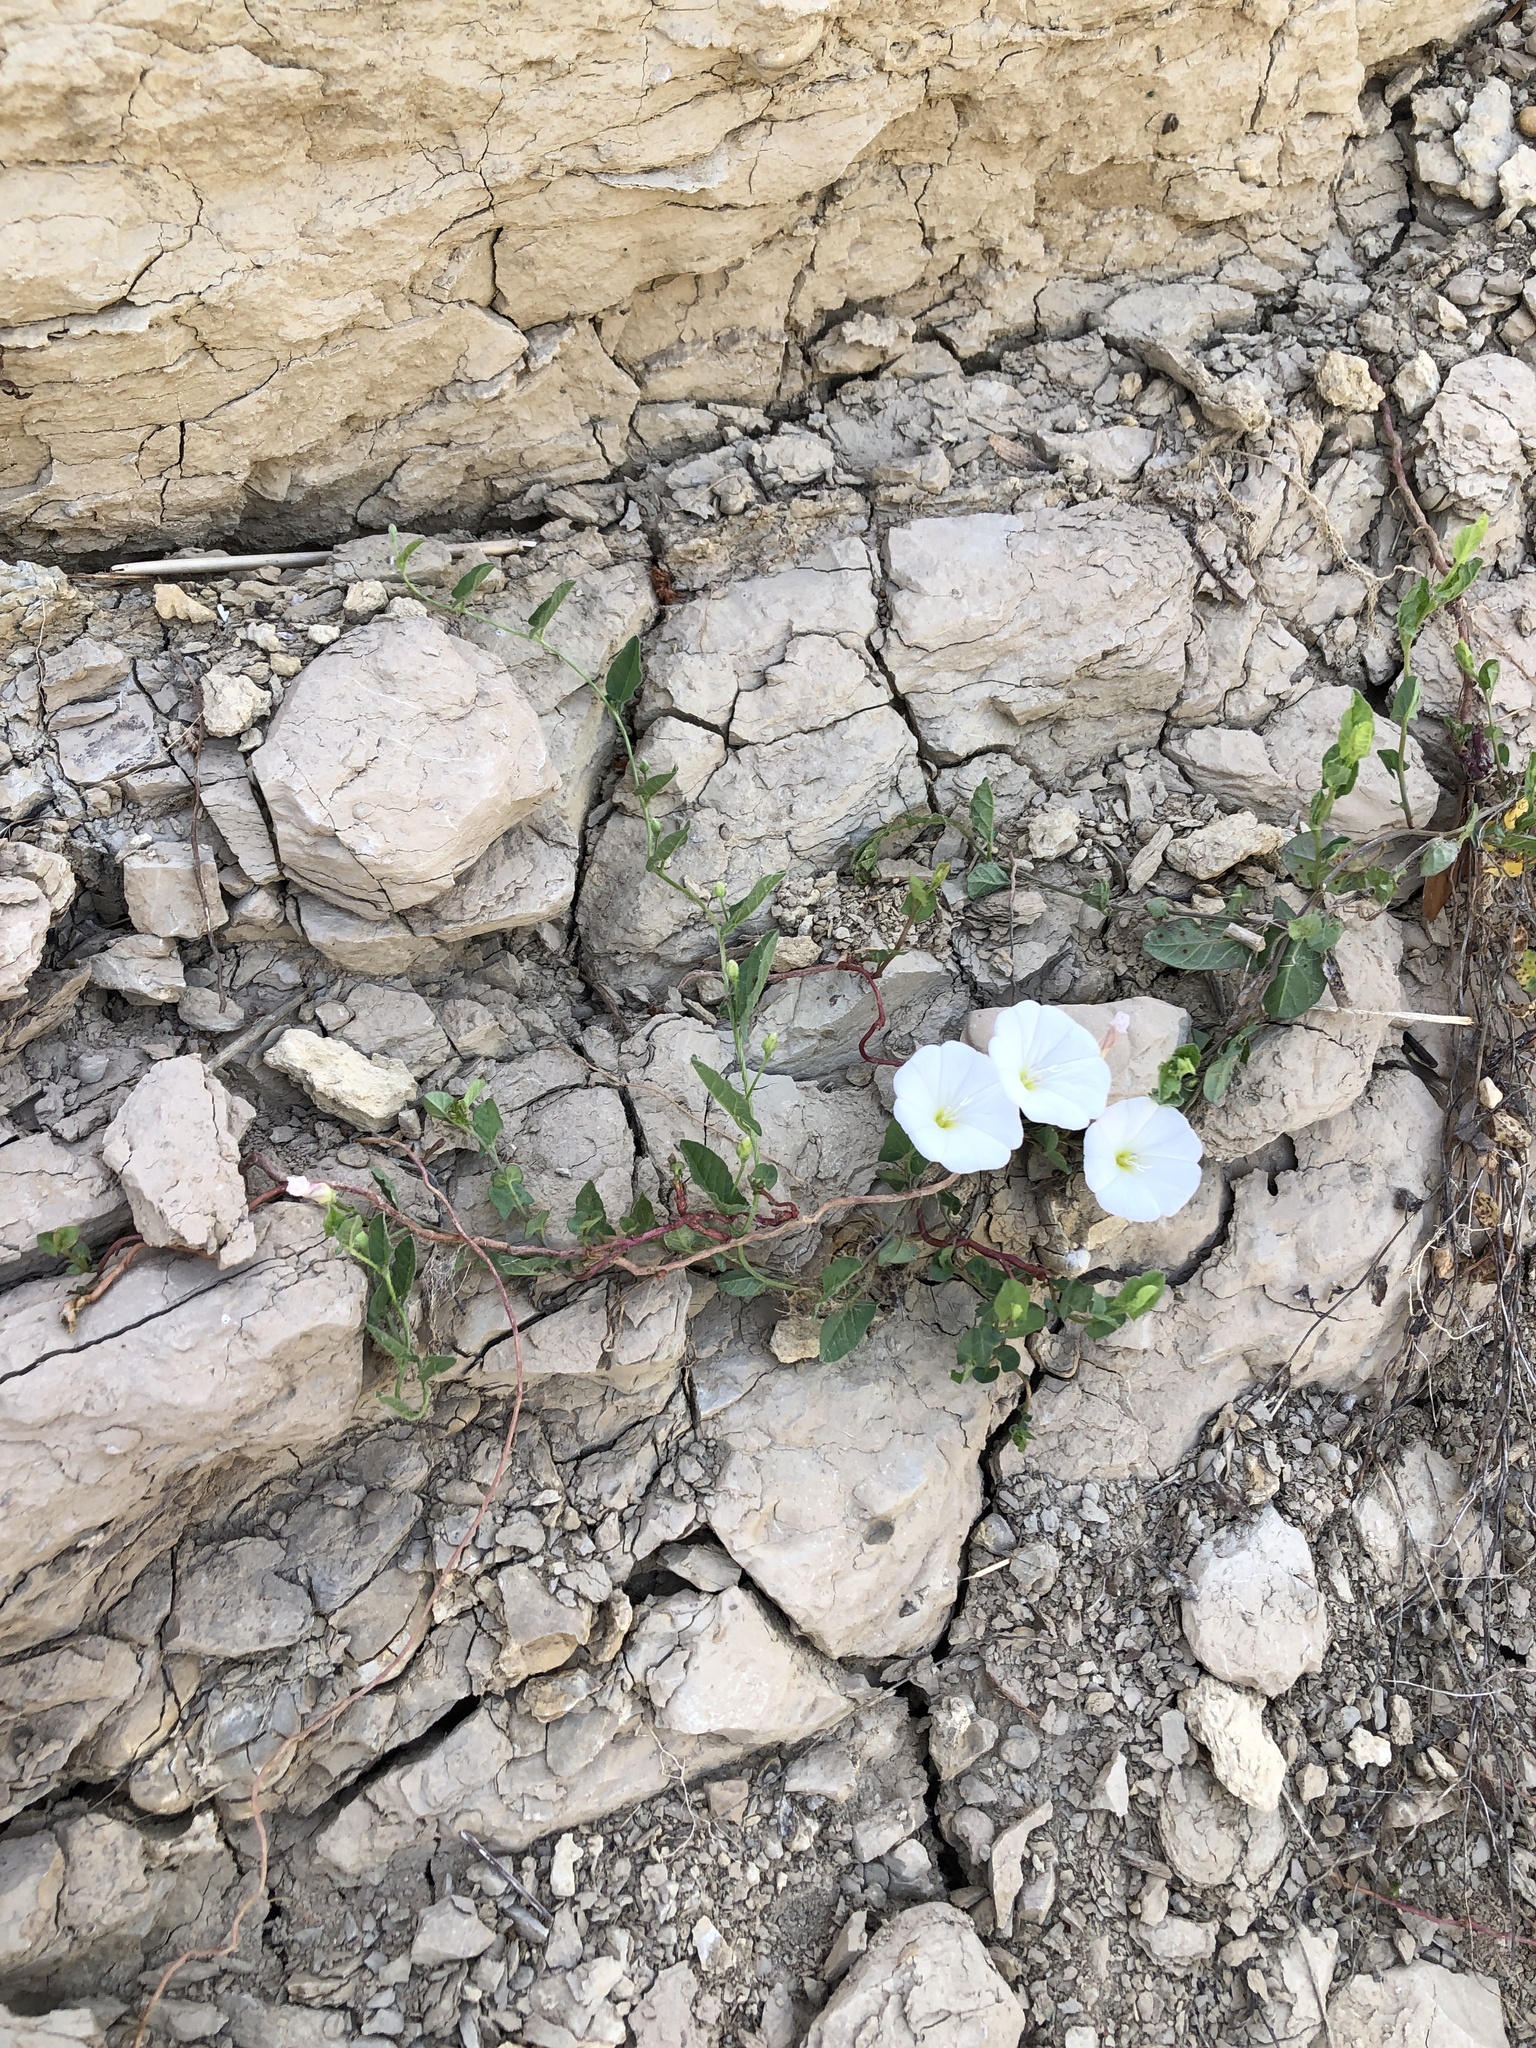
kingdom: Plantae
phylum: Tracheophyta
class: Magnoliopsida
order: Solanales
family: Convolvulaceae
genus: Convolvulus
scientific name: Convolvulus arvensis
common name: Field bindweed
